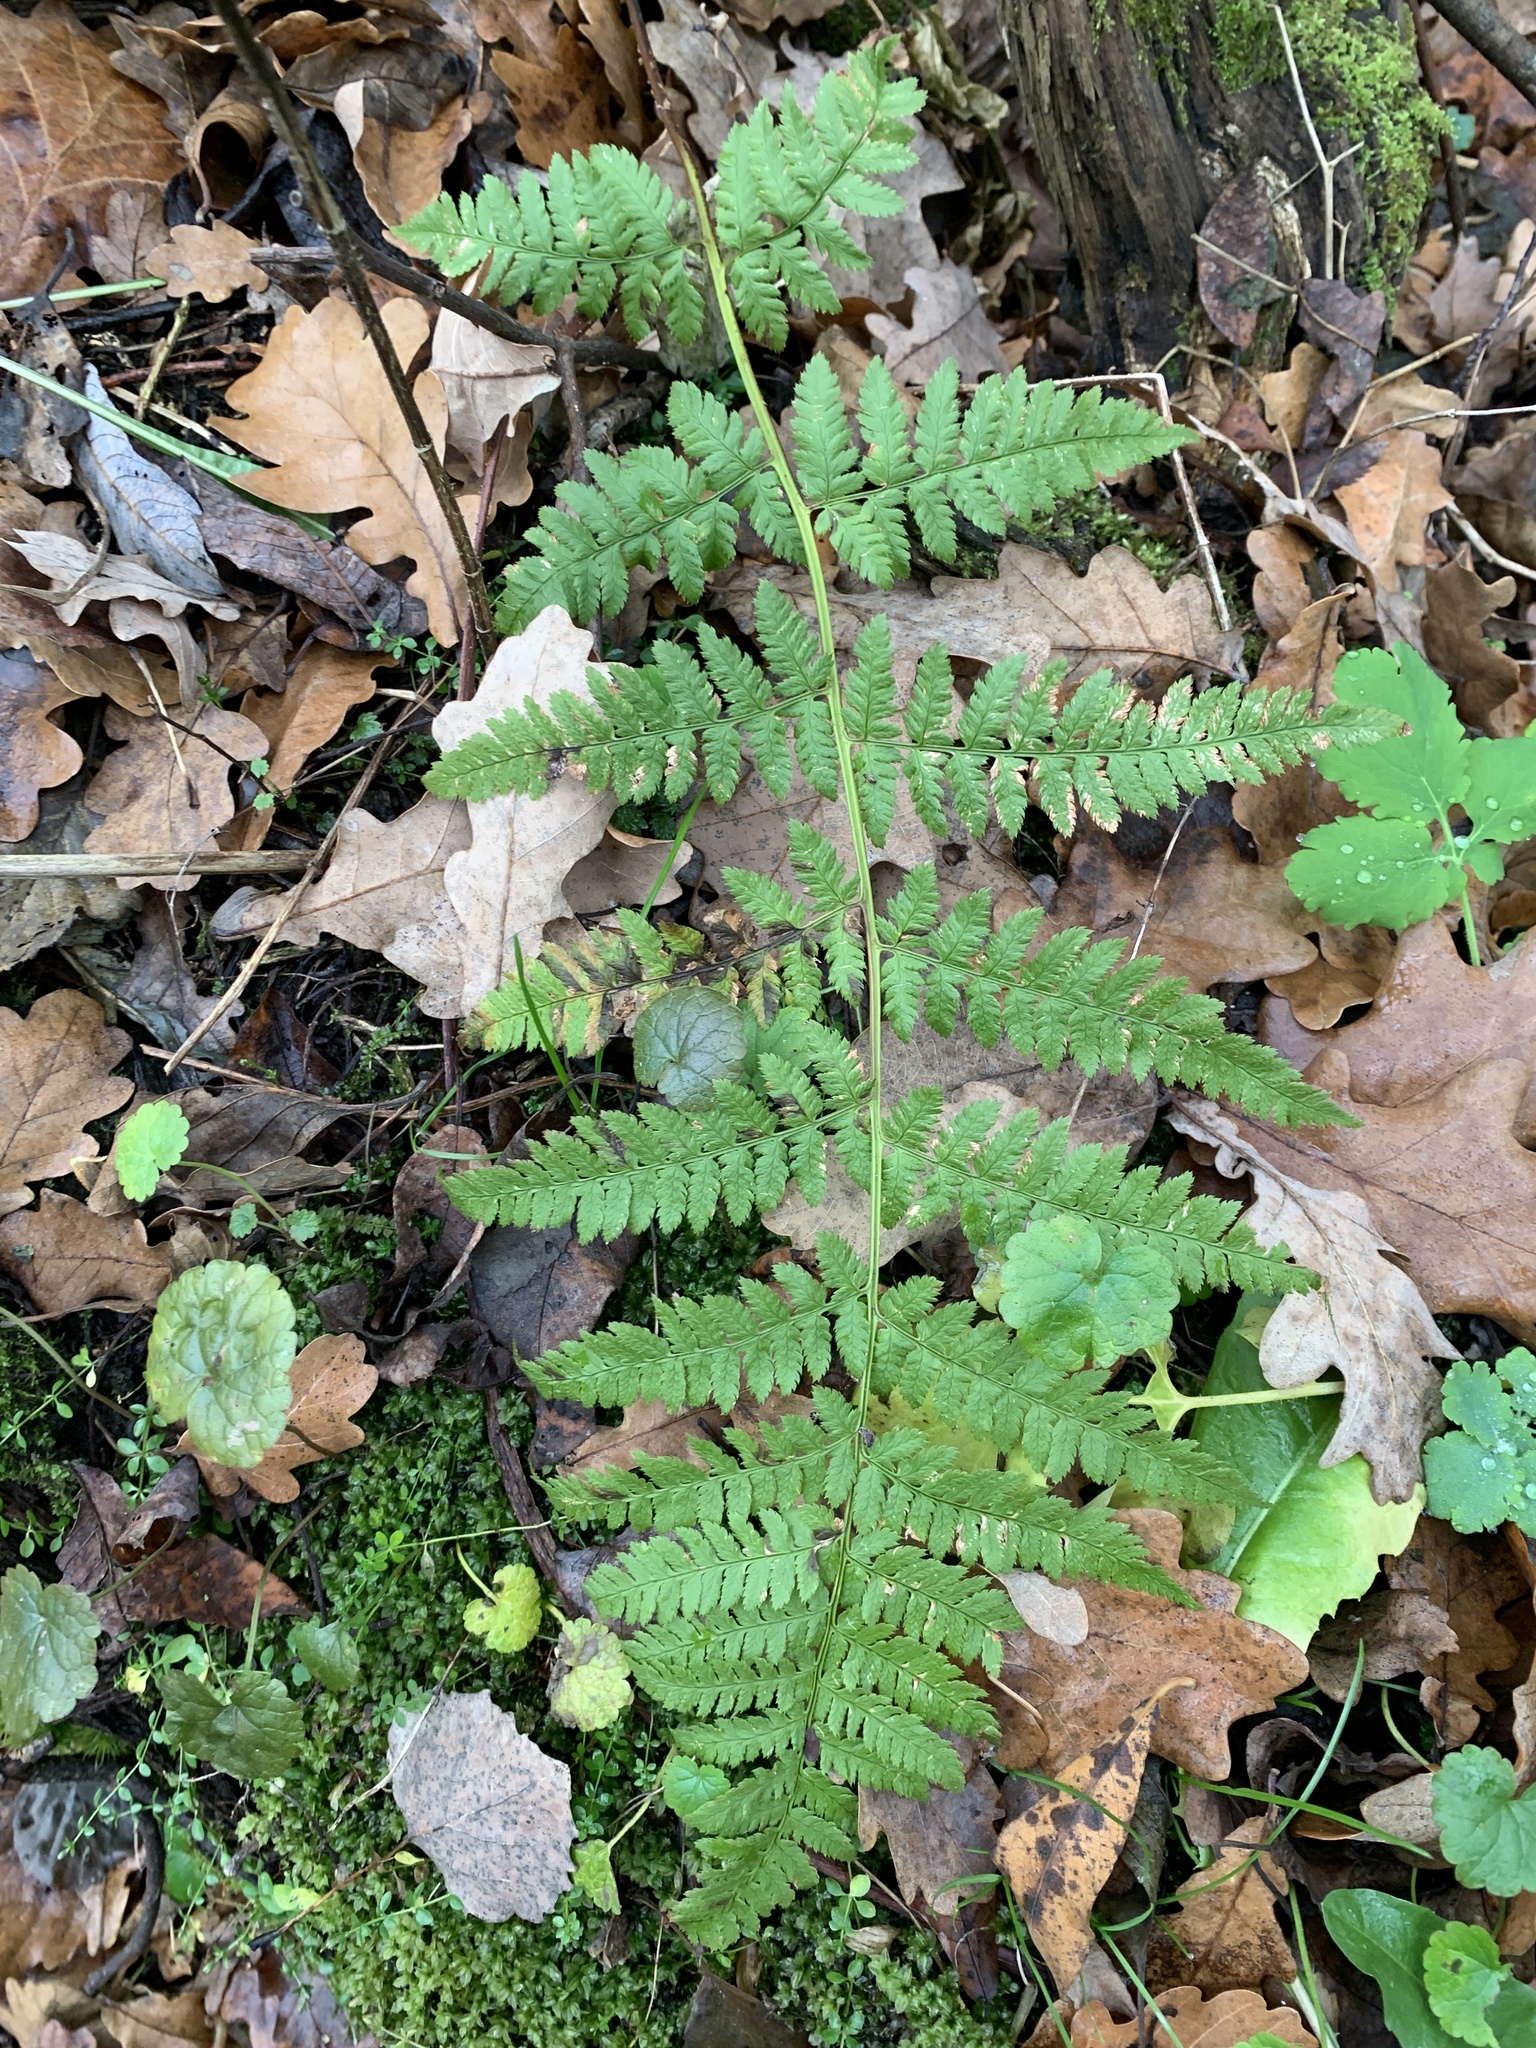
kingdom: Plantae
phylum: Tracheophyta
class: Polypodiopsida
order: Polypodiales
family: Dryopteridaceae
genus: Dryopteris
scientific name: Dryopteris carthusiana
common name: Narrow buckler-fern
